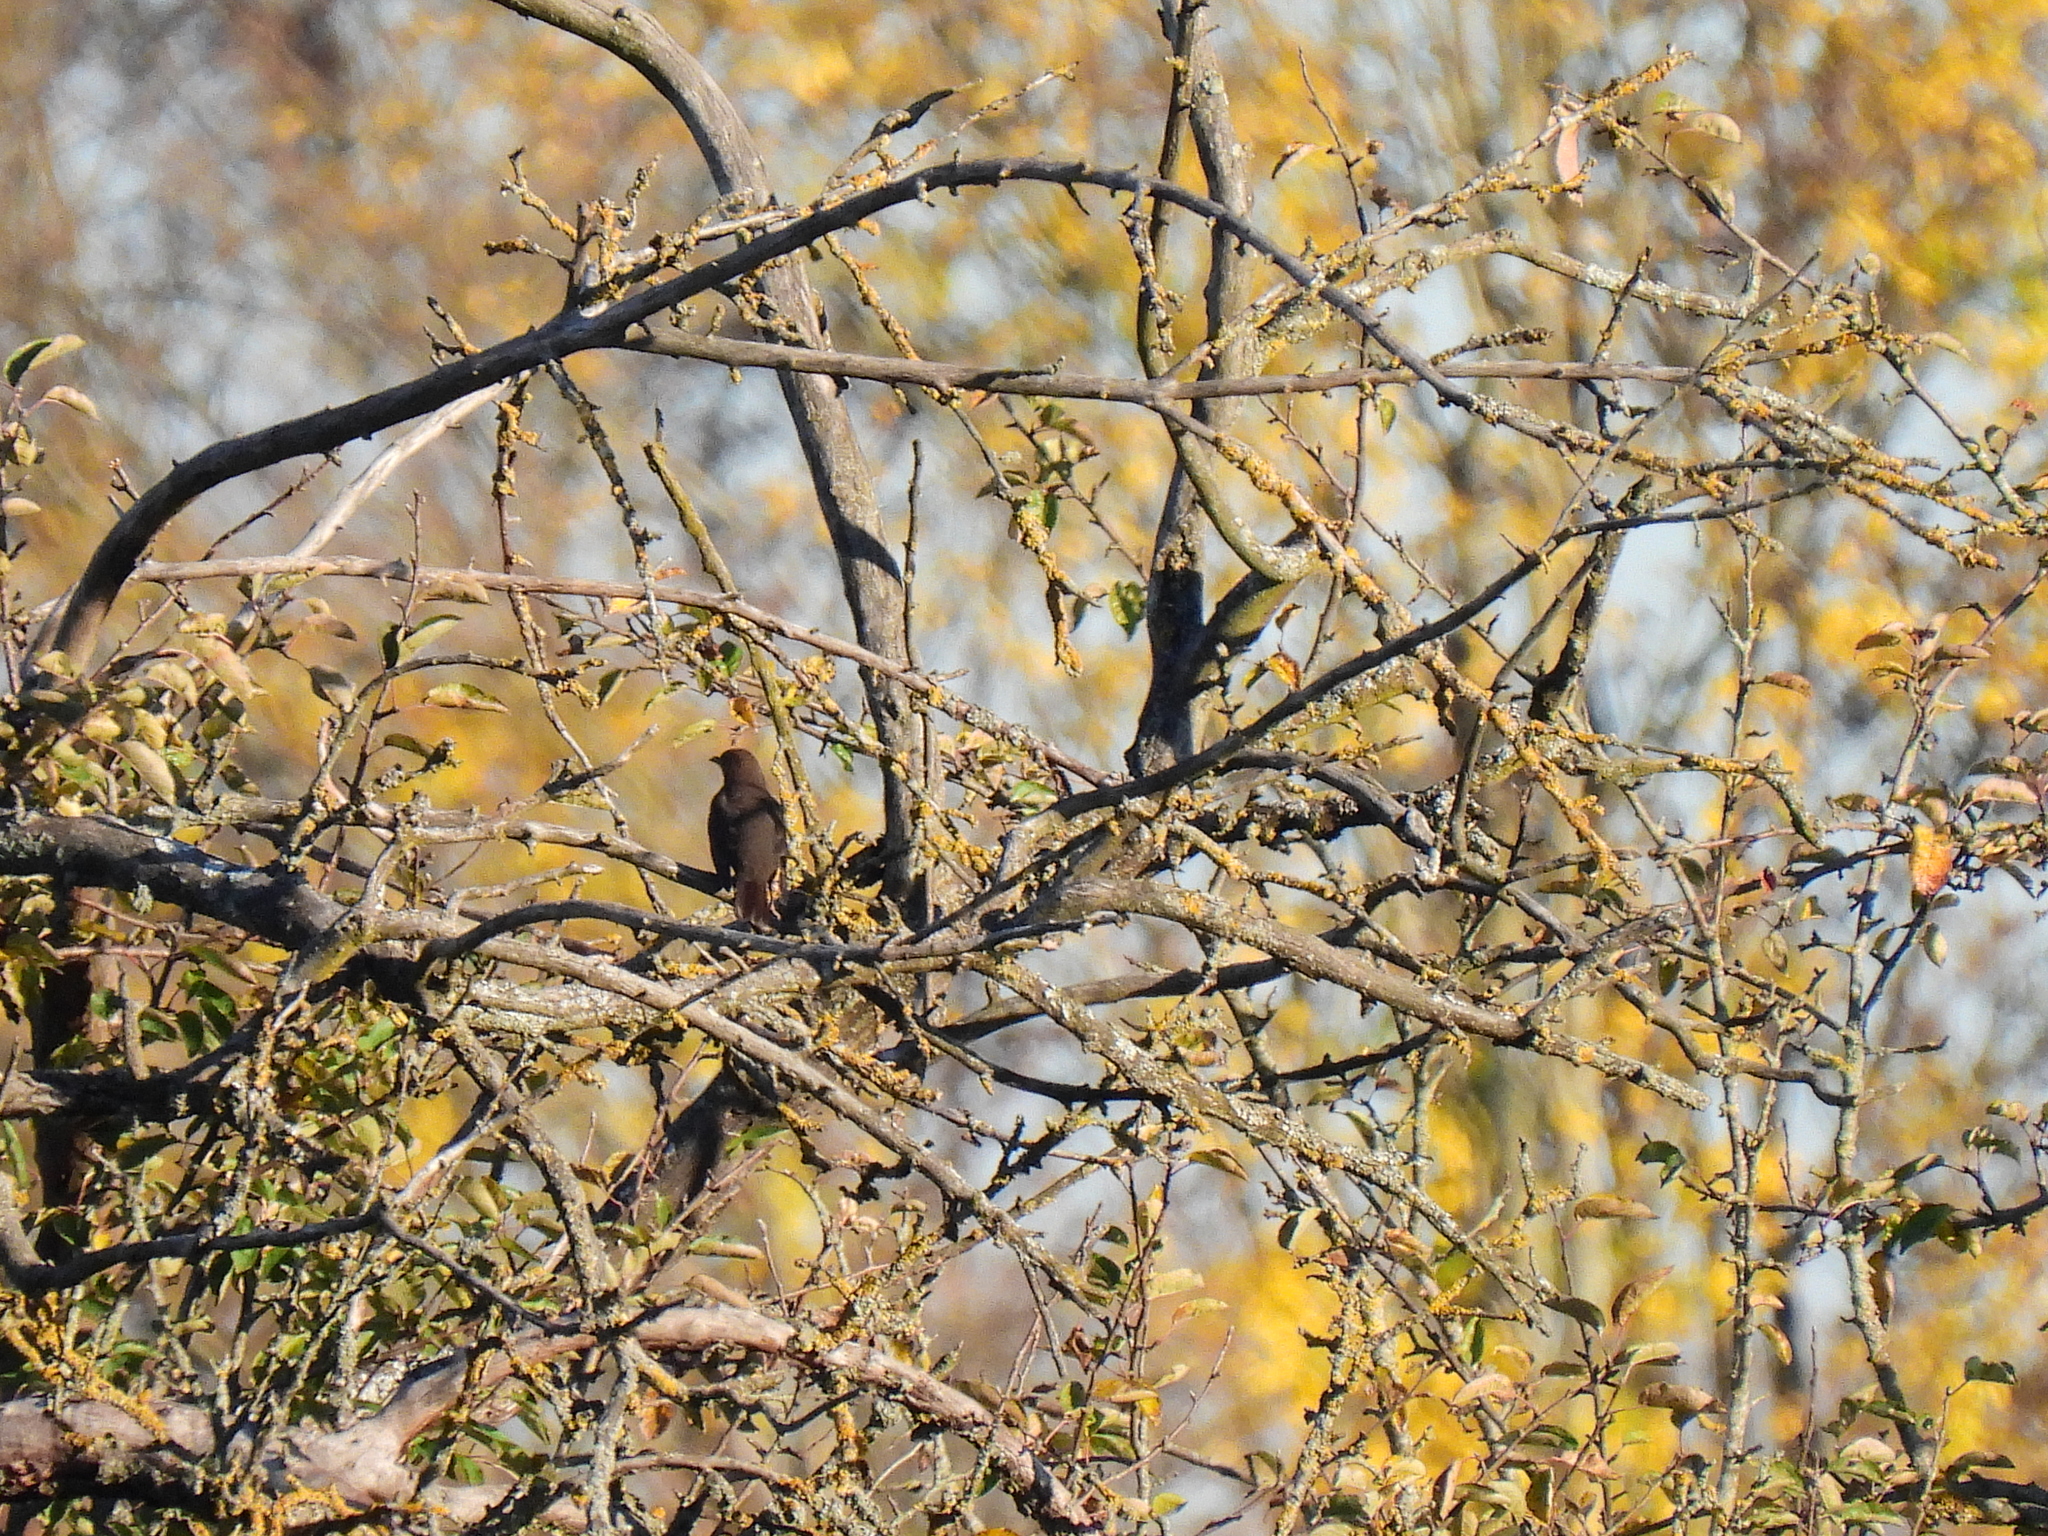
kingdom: Animalia
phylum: Chordata
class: Aves
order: Passeriformes
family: Turdidae
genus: Turdus
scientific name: Turdus merula
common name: Common blackbird
